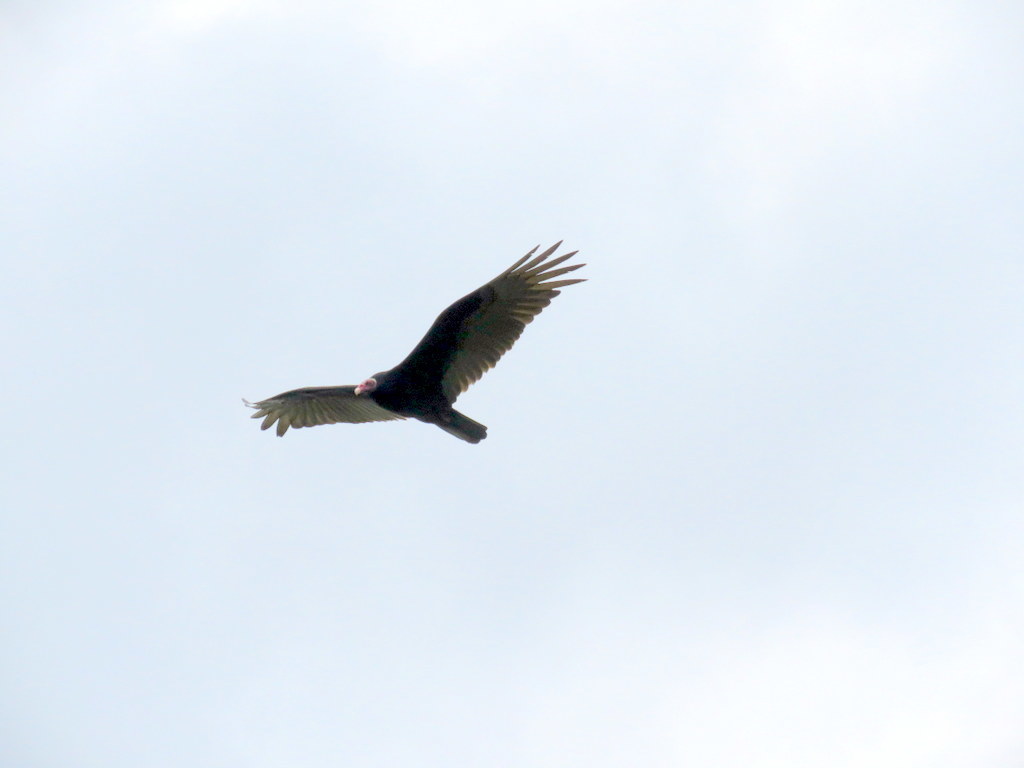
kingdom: Animalia
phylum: Chordata
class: Aves
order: Accipitriformes
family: Cathartidae
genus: Cathartes
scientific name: Cathartes aura
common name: Turkey vulture
